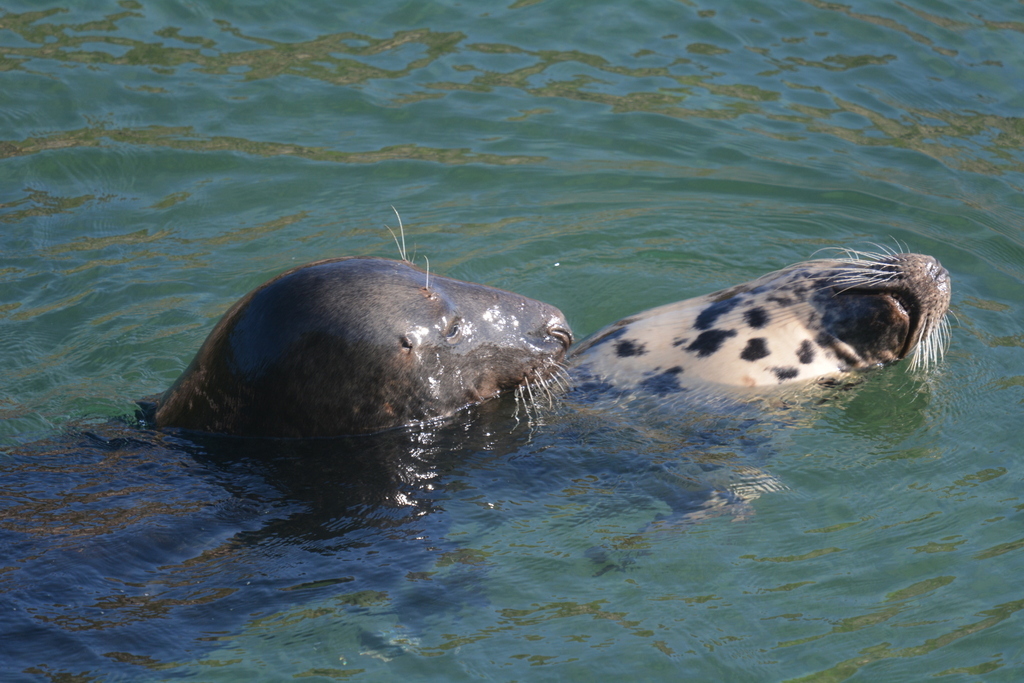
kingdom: Animalia
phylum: Chordata
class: Mammalia
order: Carnivora
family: Phocidae
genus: Halichoerus
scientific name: Halichoerus grypus
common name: Grey seal
